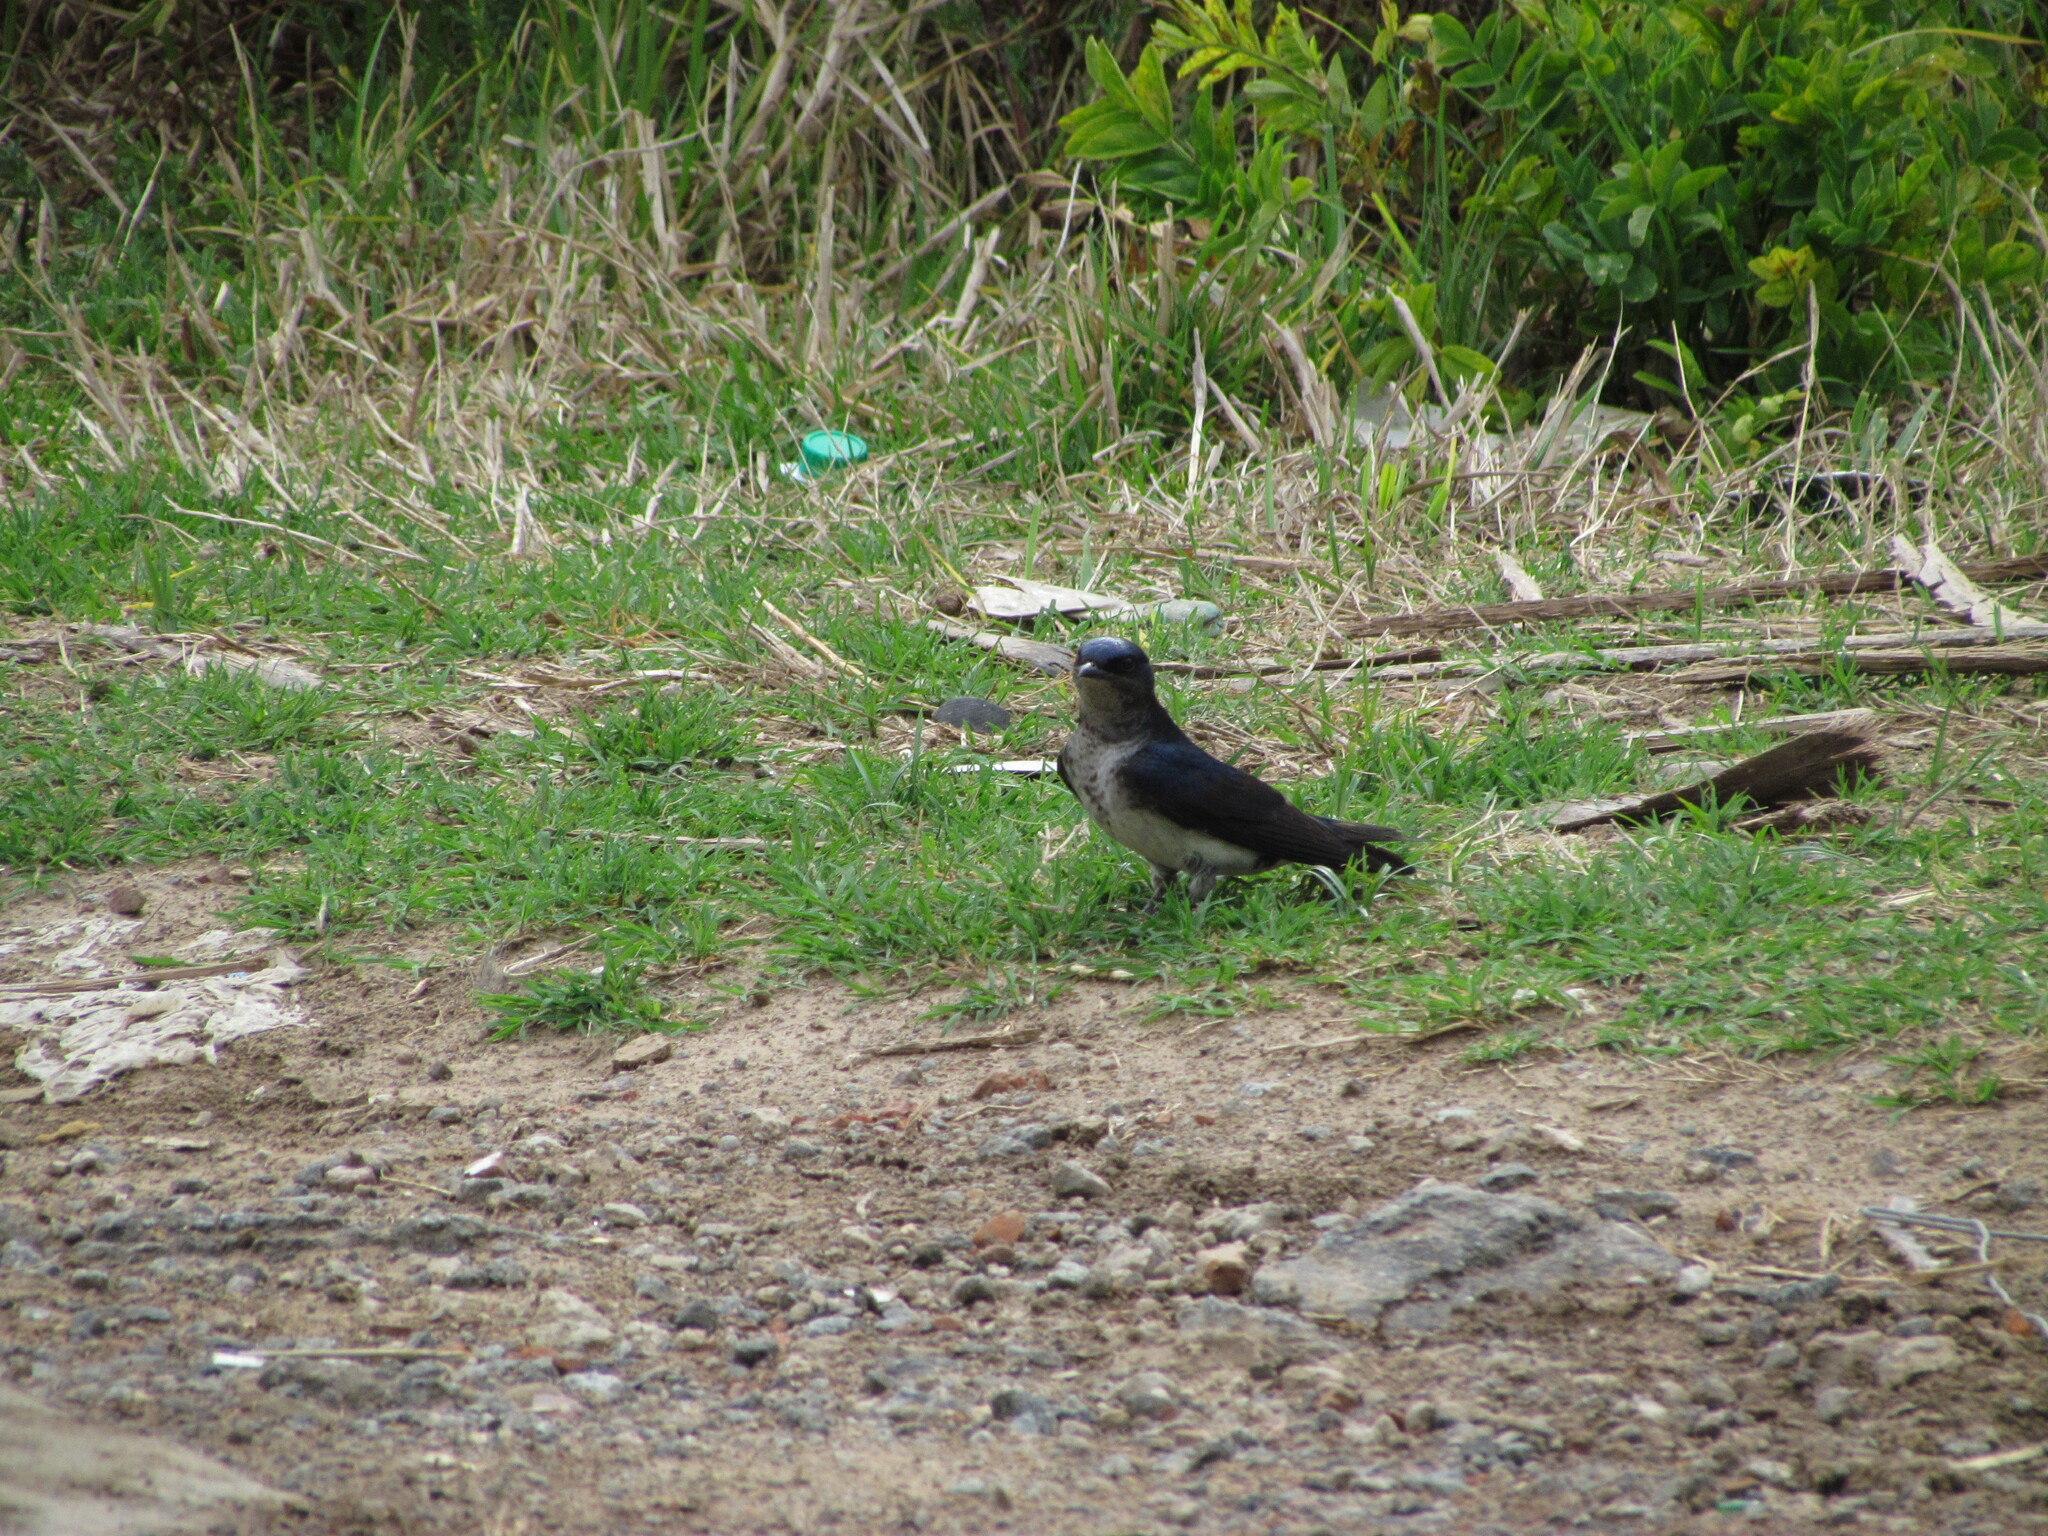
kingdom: Animalia
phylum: Chordata
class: Aves
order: Passeriformes
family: Hirundinidae
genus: Progne
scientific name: Progne chalybea
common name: Grey-breasted martin
